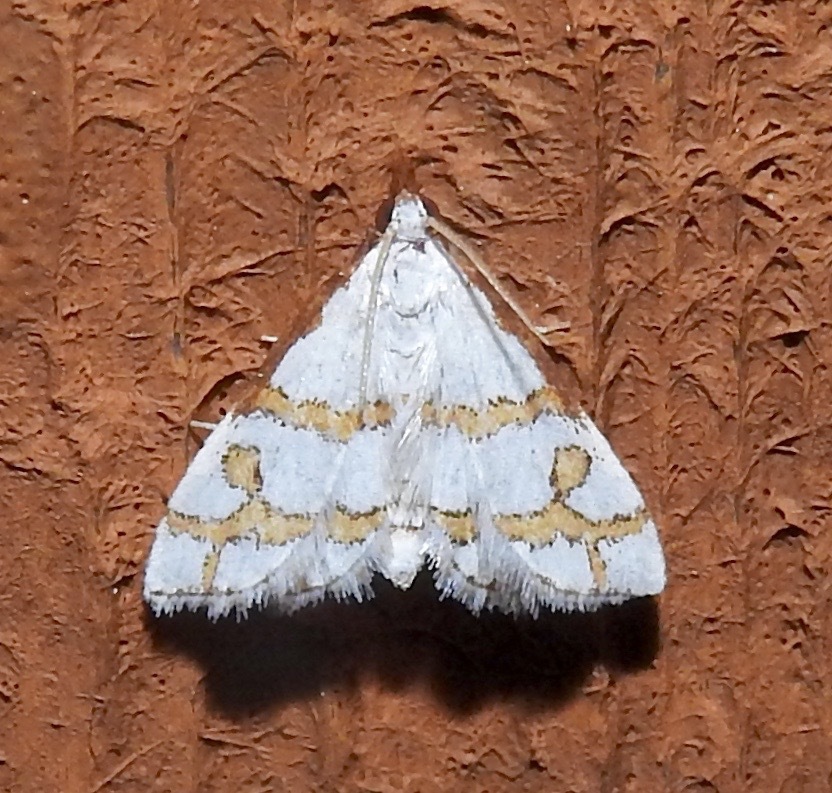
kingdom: Animalia
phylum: Arthropoda
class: Insecta
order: Lepidoptera
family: Crambidae
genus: Leptosteges
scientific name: Leptosteges
